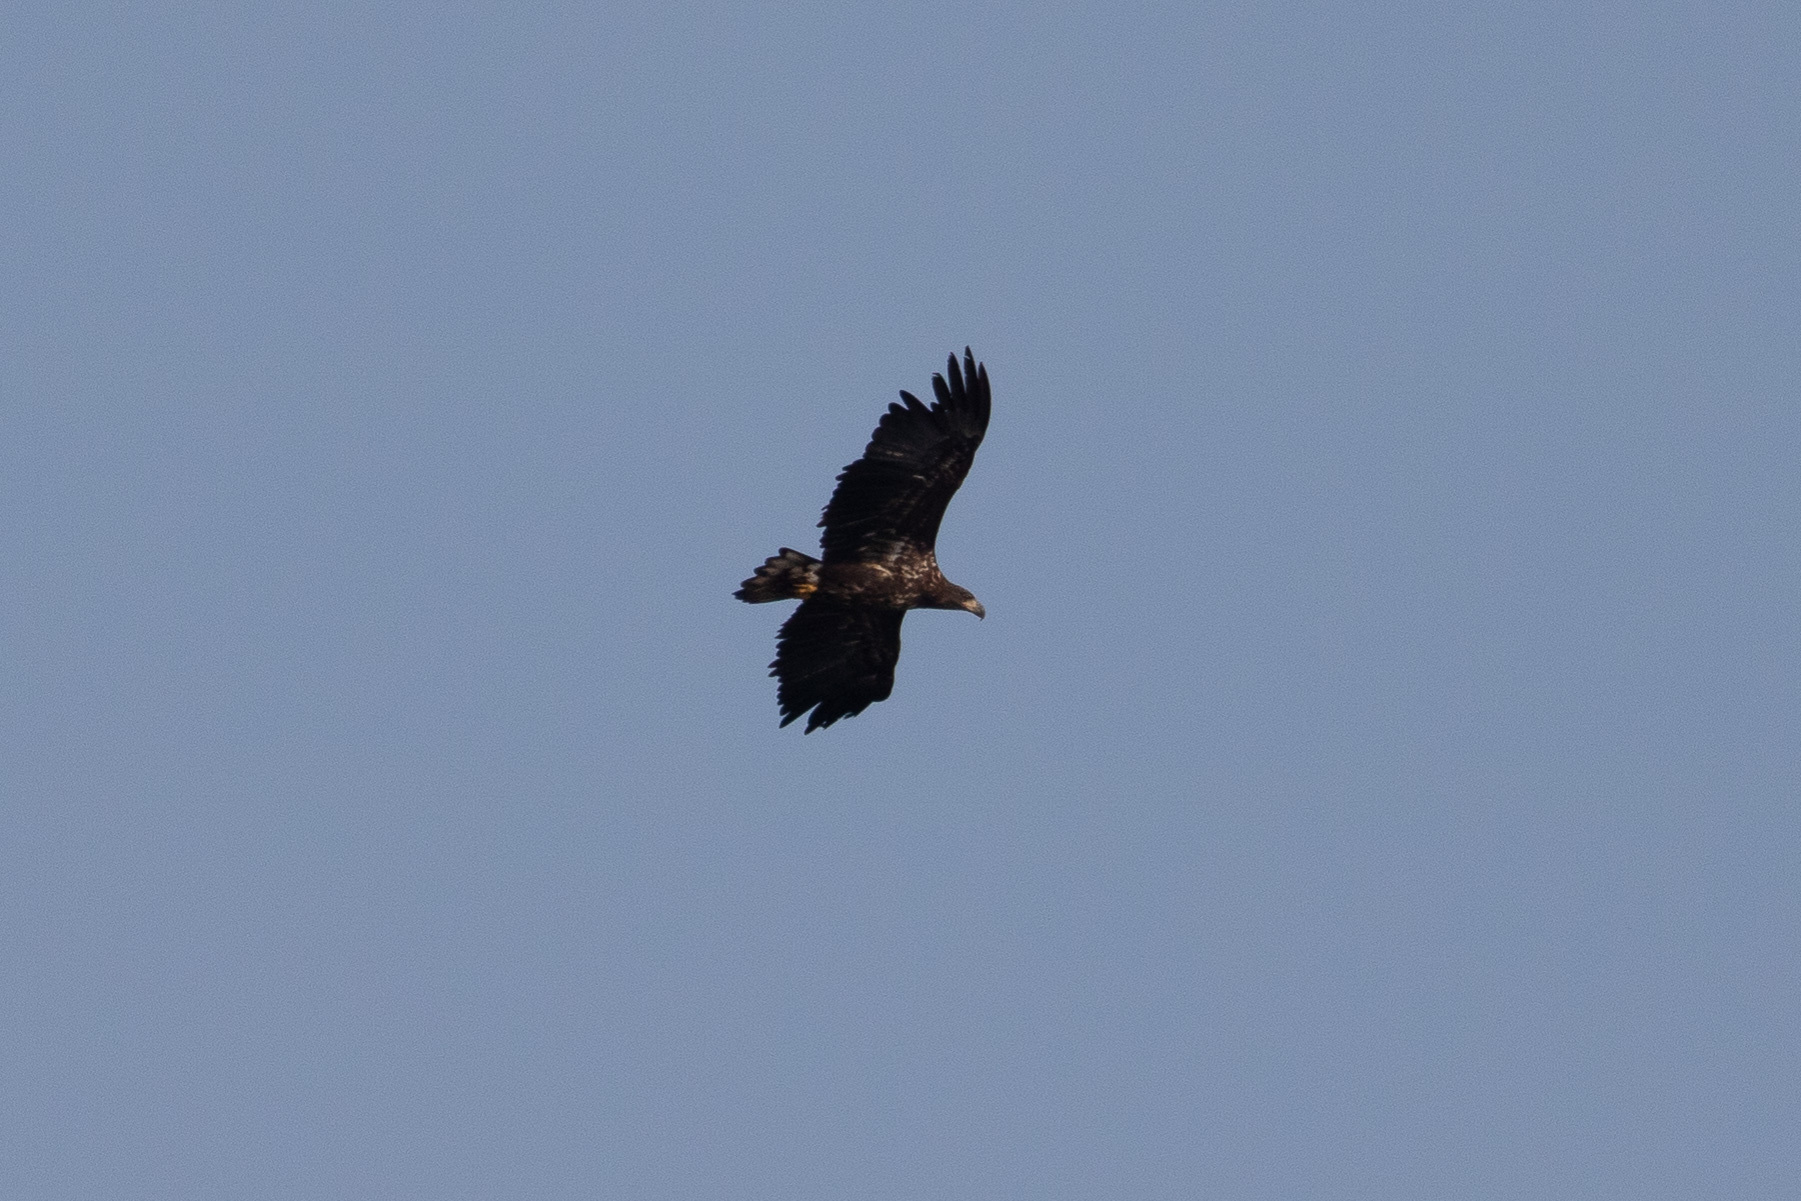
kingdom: Animalia
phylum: Chordata
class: Aves
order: Accipitriformes
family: Accipitridae
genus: Haliaeetus
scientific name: Haliaeetus albicilla
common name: White-tailed eagle
